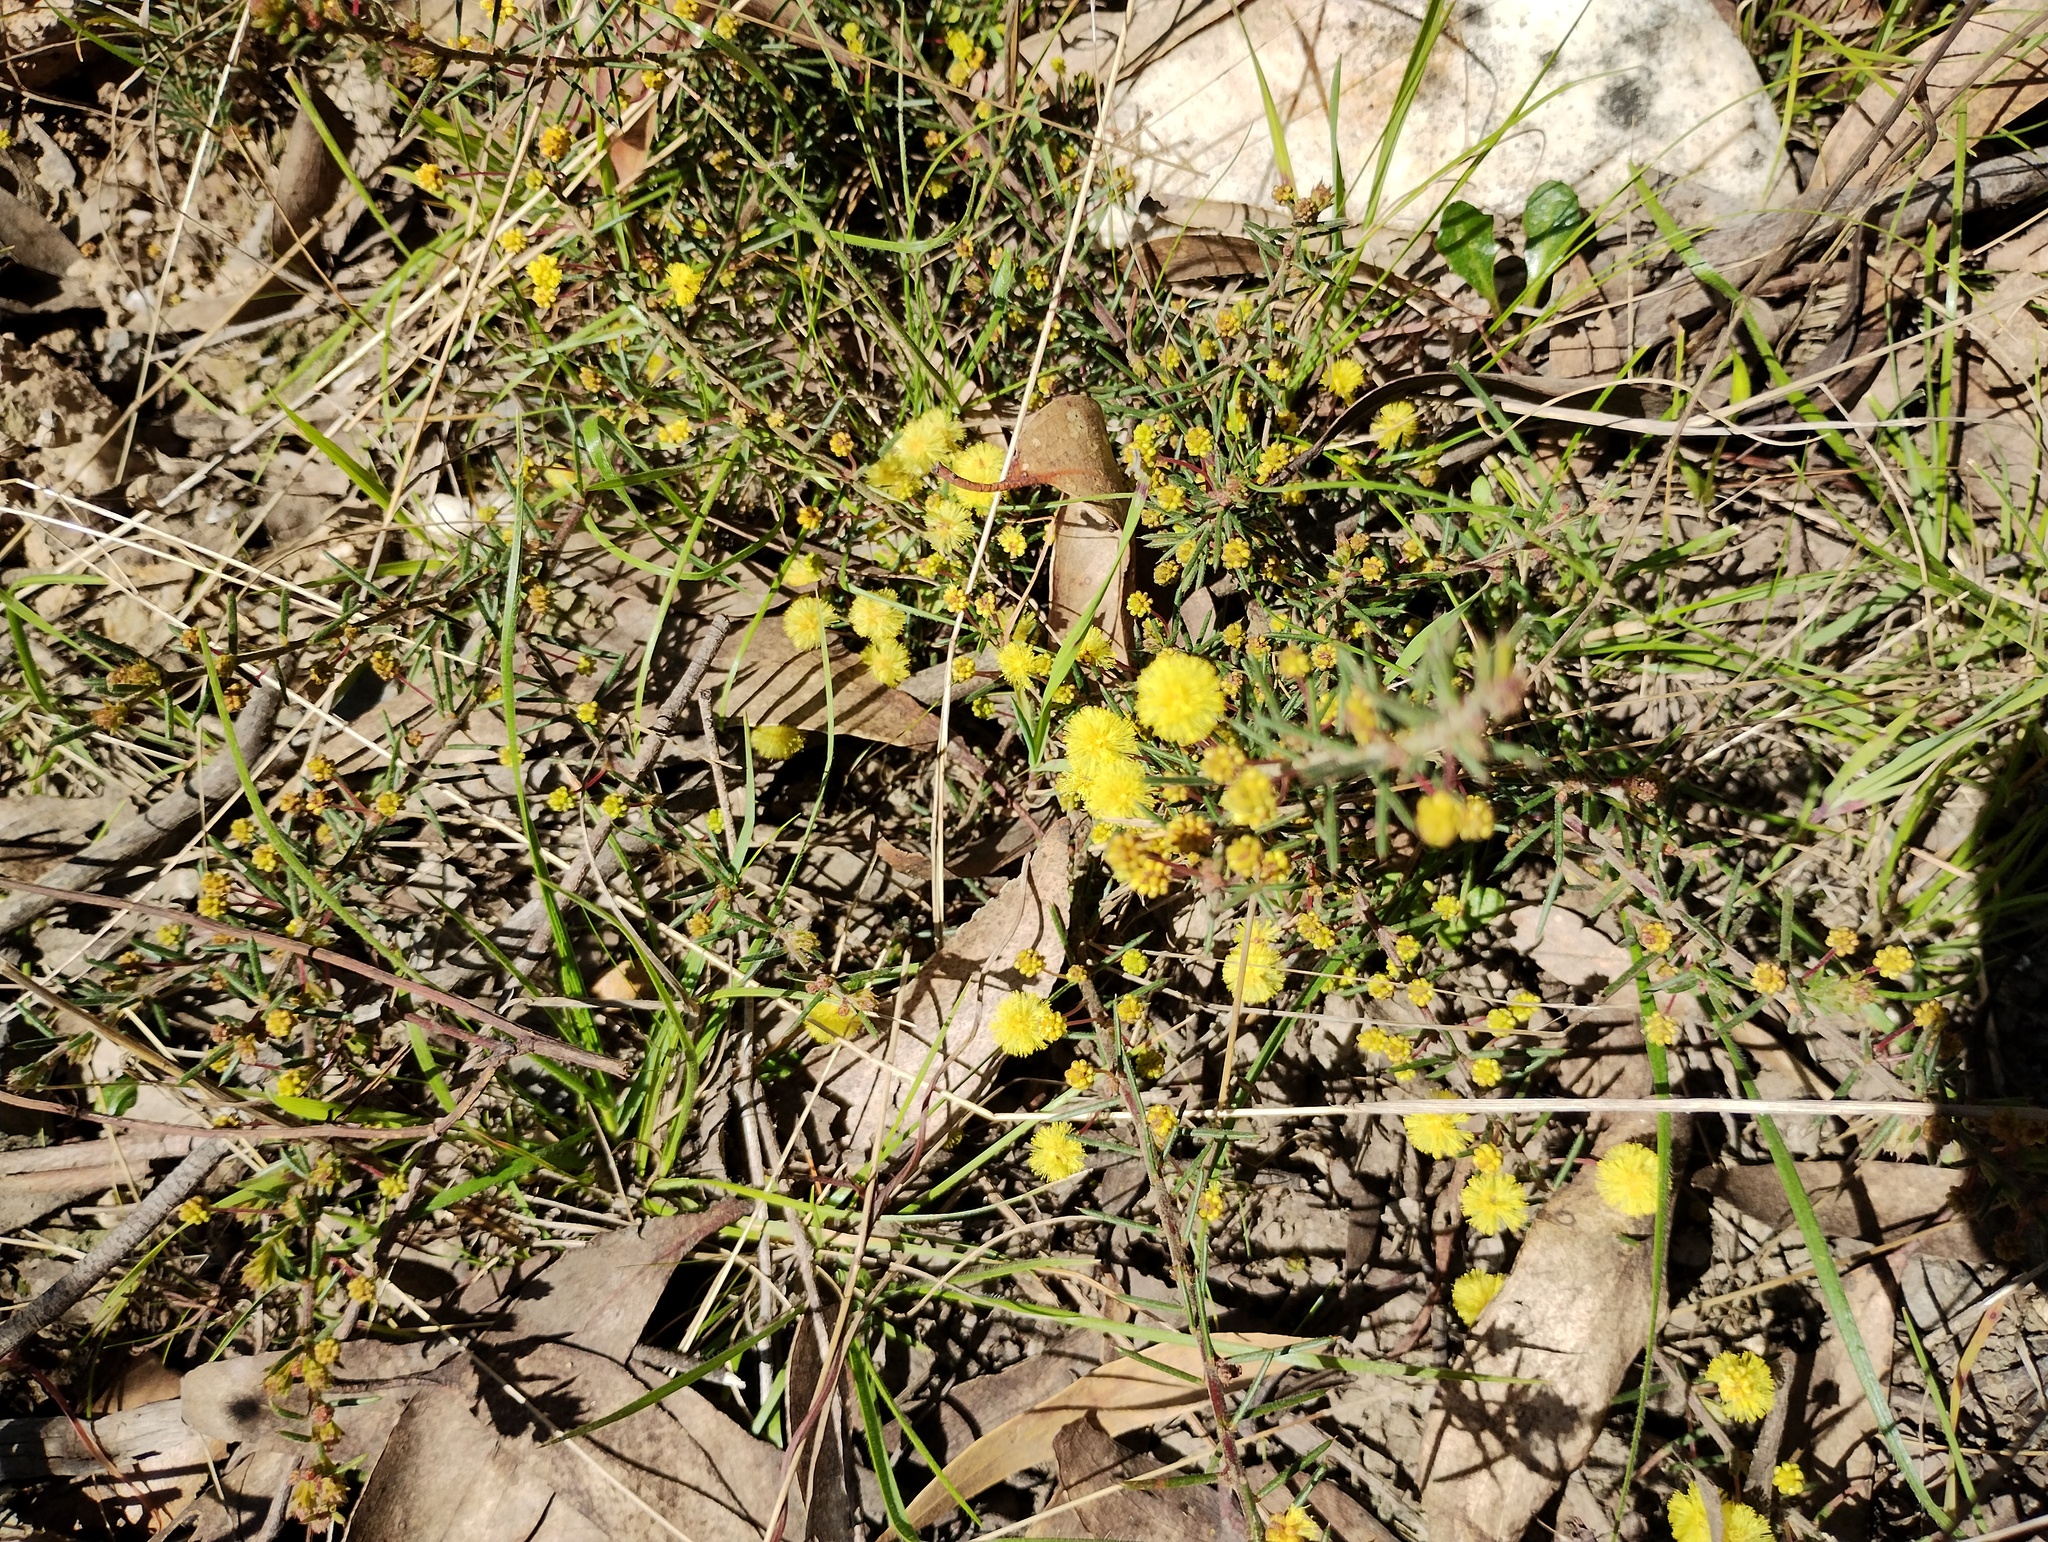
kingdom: Plantae
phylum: Tracheophyta
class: Magnoliopsida
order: Fabales
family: Fabaceae
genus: Acacia
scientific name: Acacia aculeatissima
